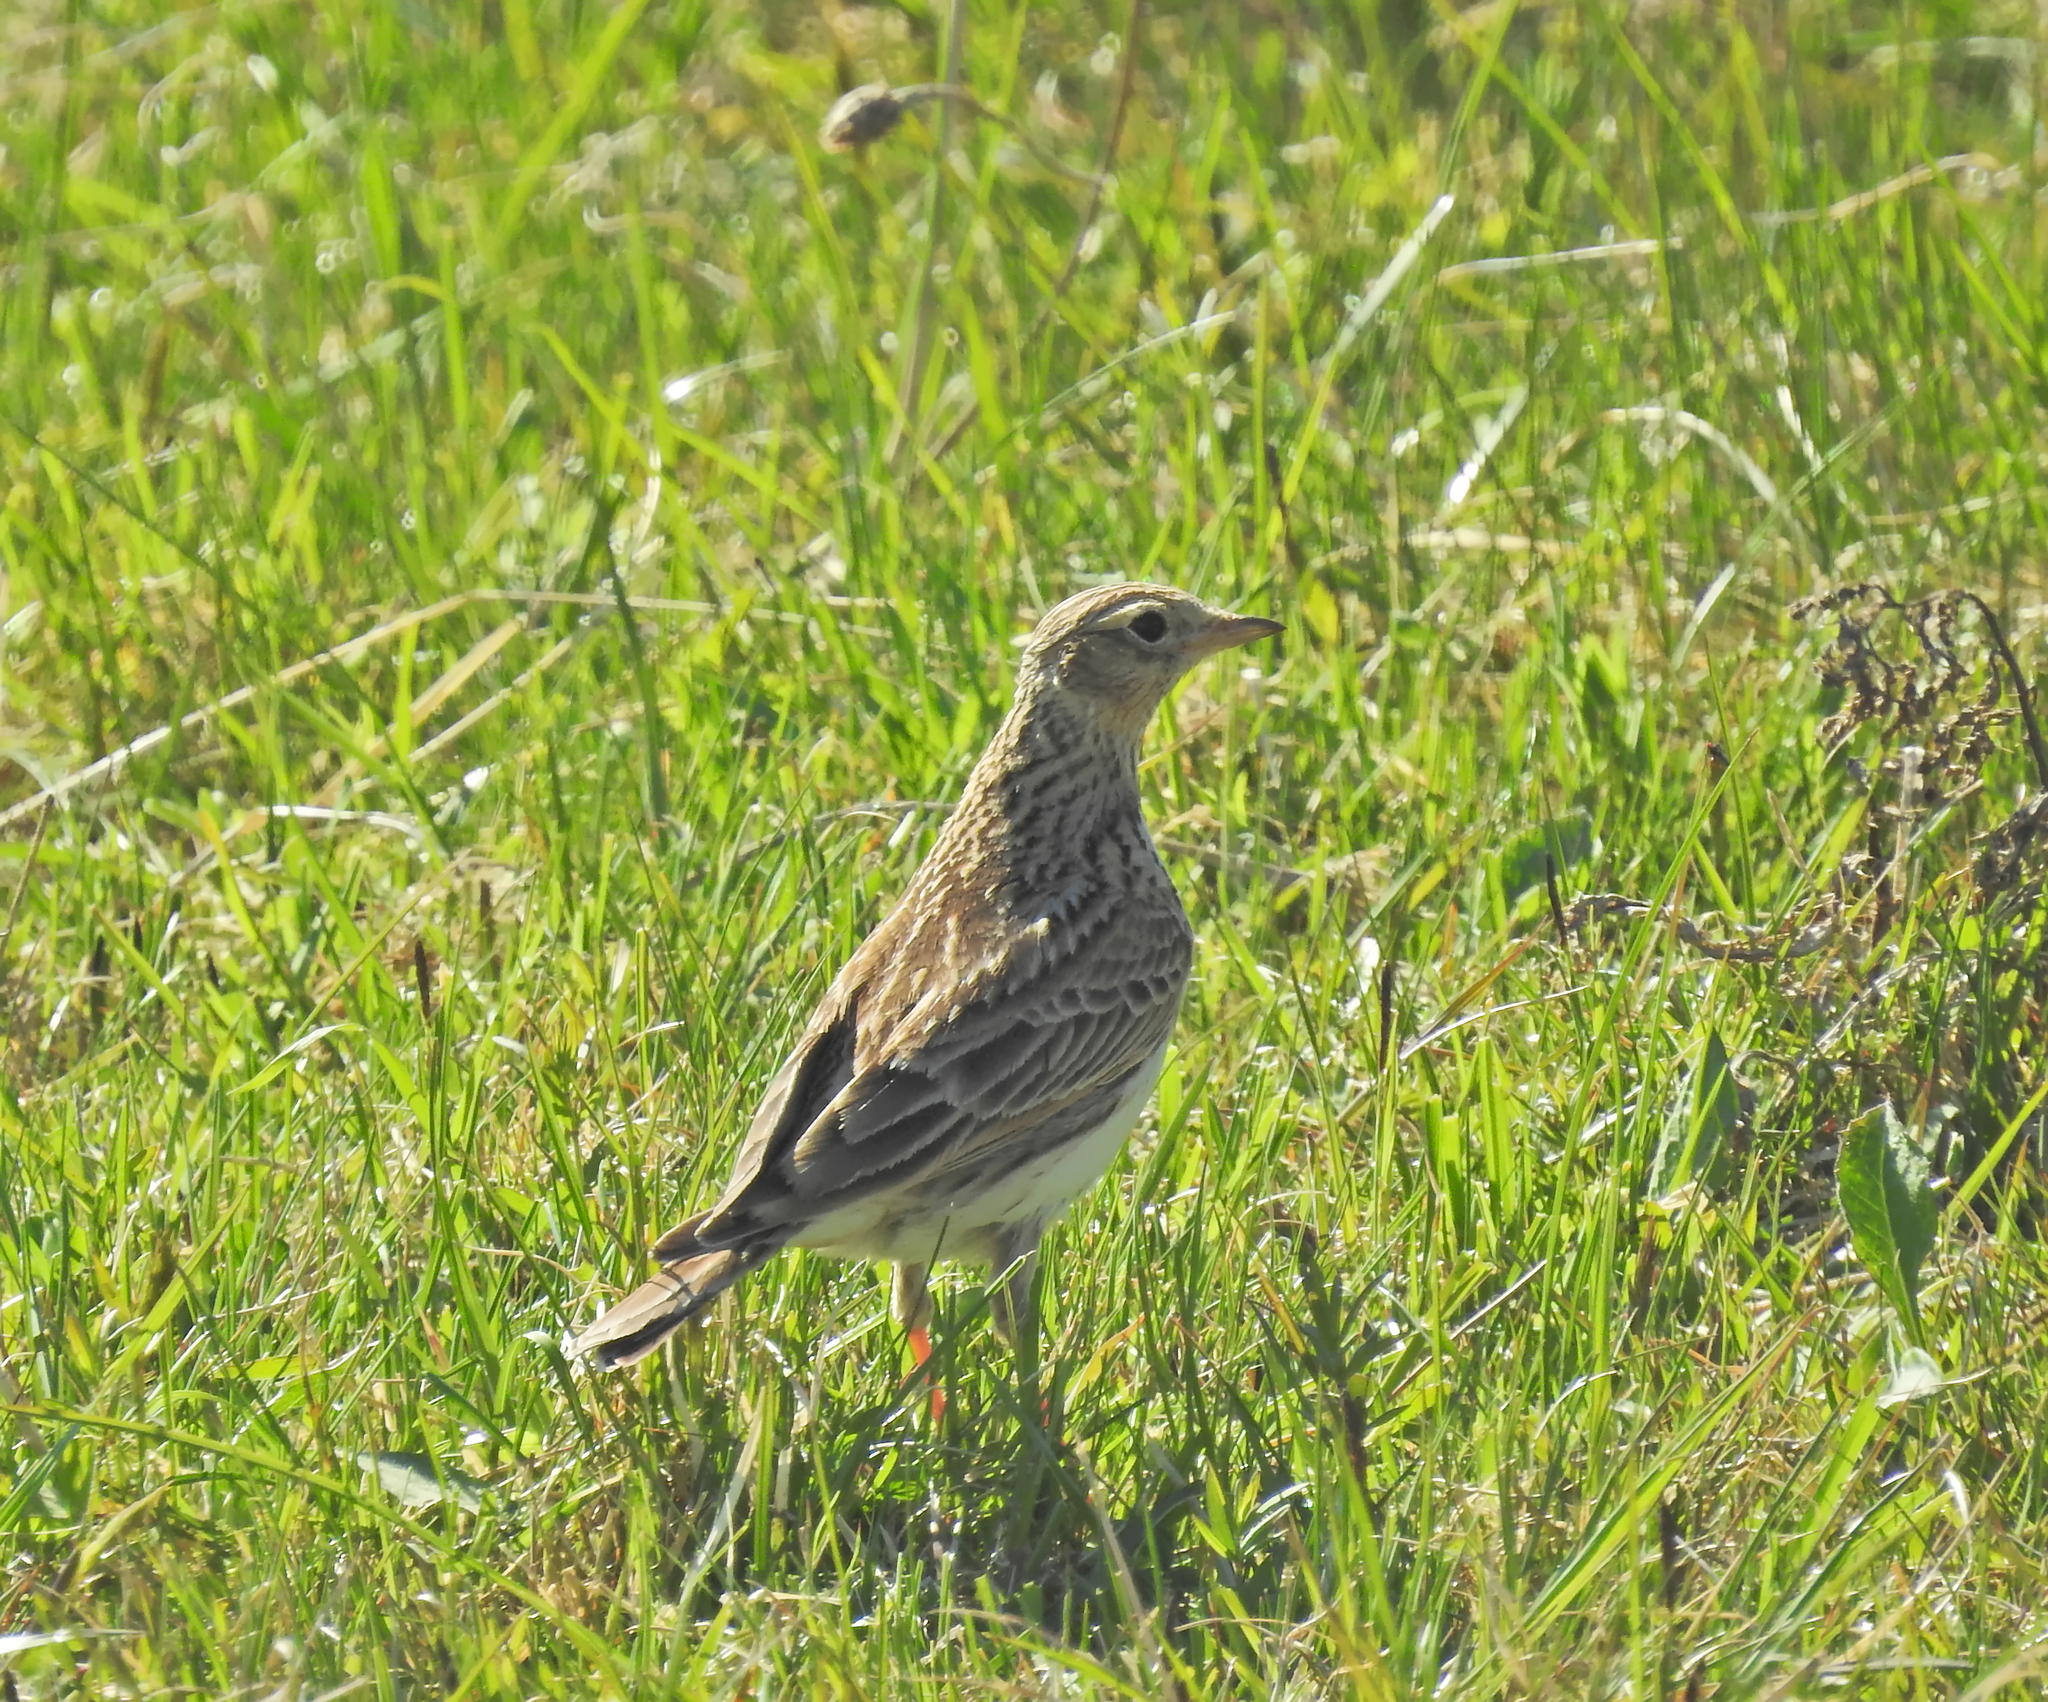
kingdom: Animalia
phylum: Chordata
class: Aves
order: Passeriformes
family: Alaudidae
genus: Alauda
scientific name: Alauda arvensis
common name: Eurasian skylark
